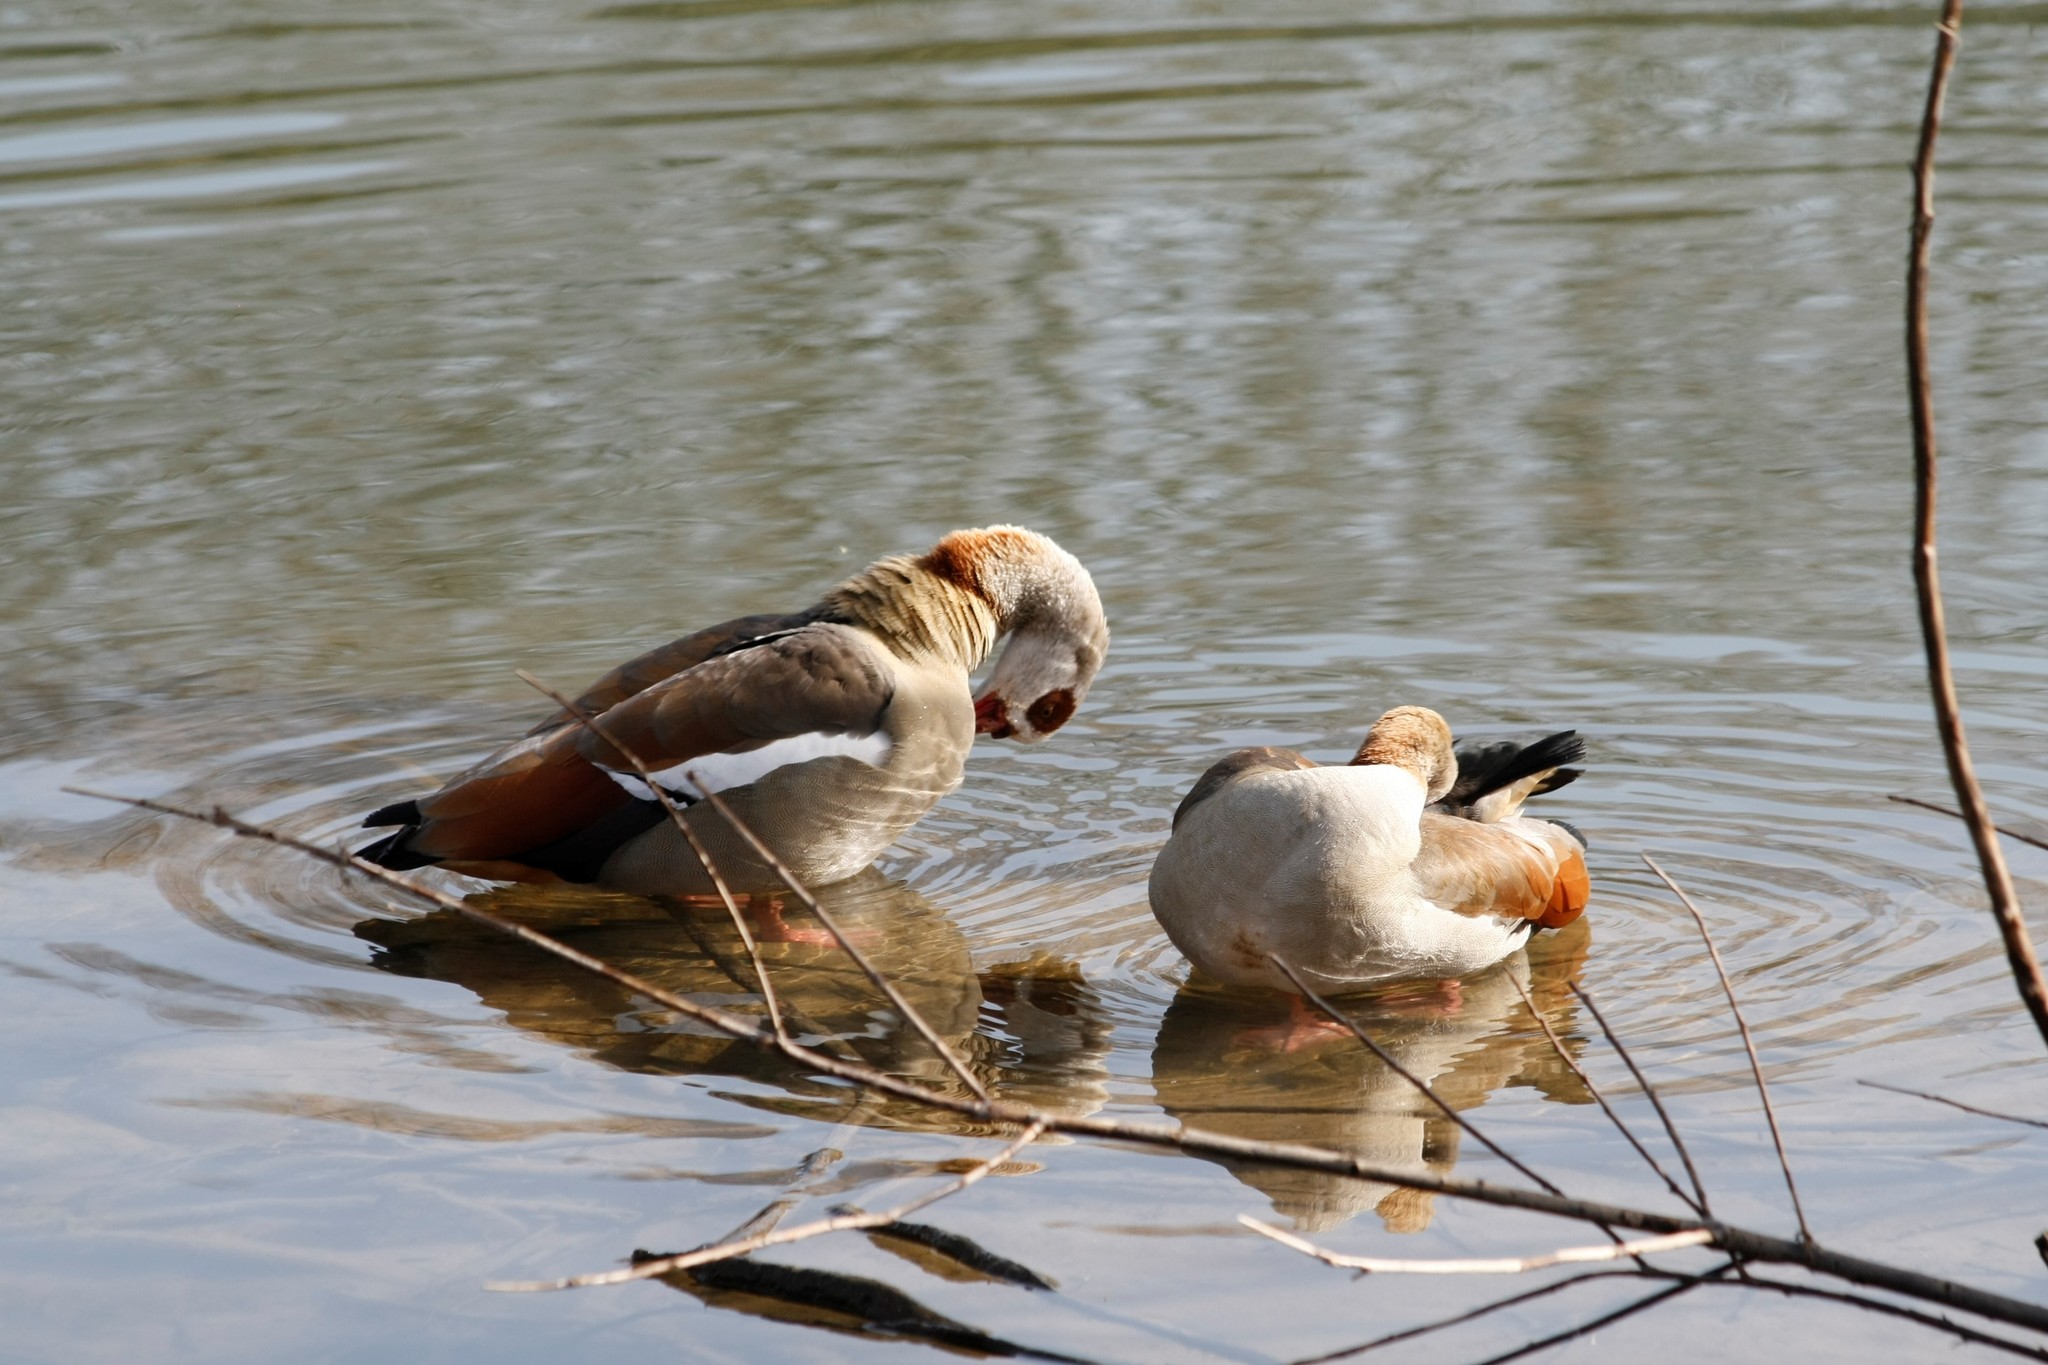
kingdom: Animalia
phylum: Chordata
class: Aves
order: Anseriformes
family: Anatidae
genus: Alopochen
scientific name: Alopochen aegyptiaca
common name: Egyptian goose
